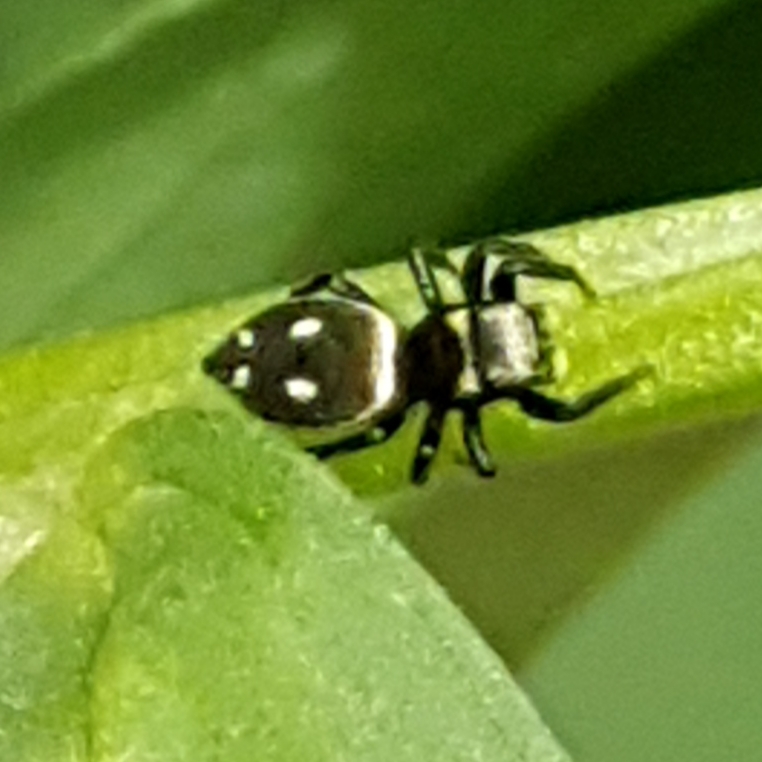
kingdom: Animalia
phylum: Arthropoda
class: Arachnida
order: Araneae
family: Salticidae
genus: Heliophanus
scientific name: Heliophanus apiatus
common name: Sun jumping spider
